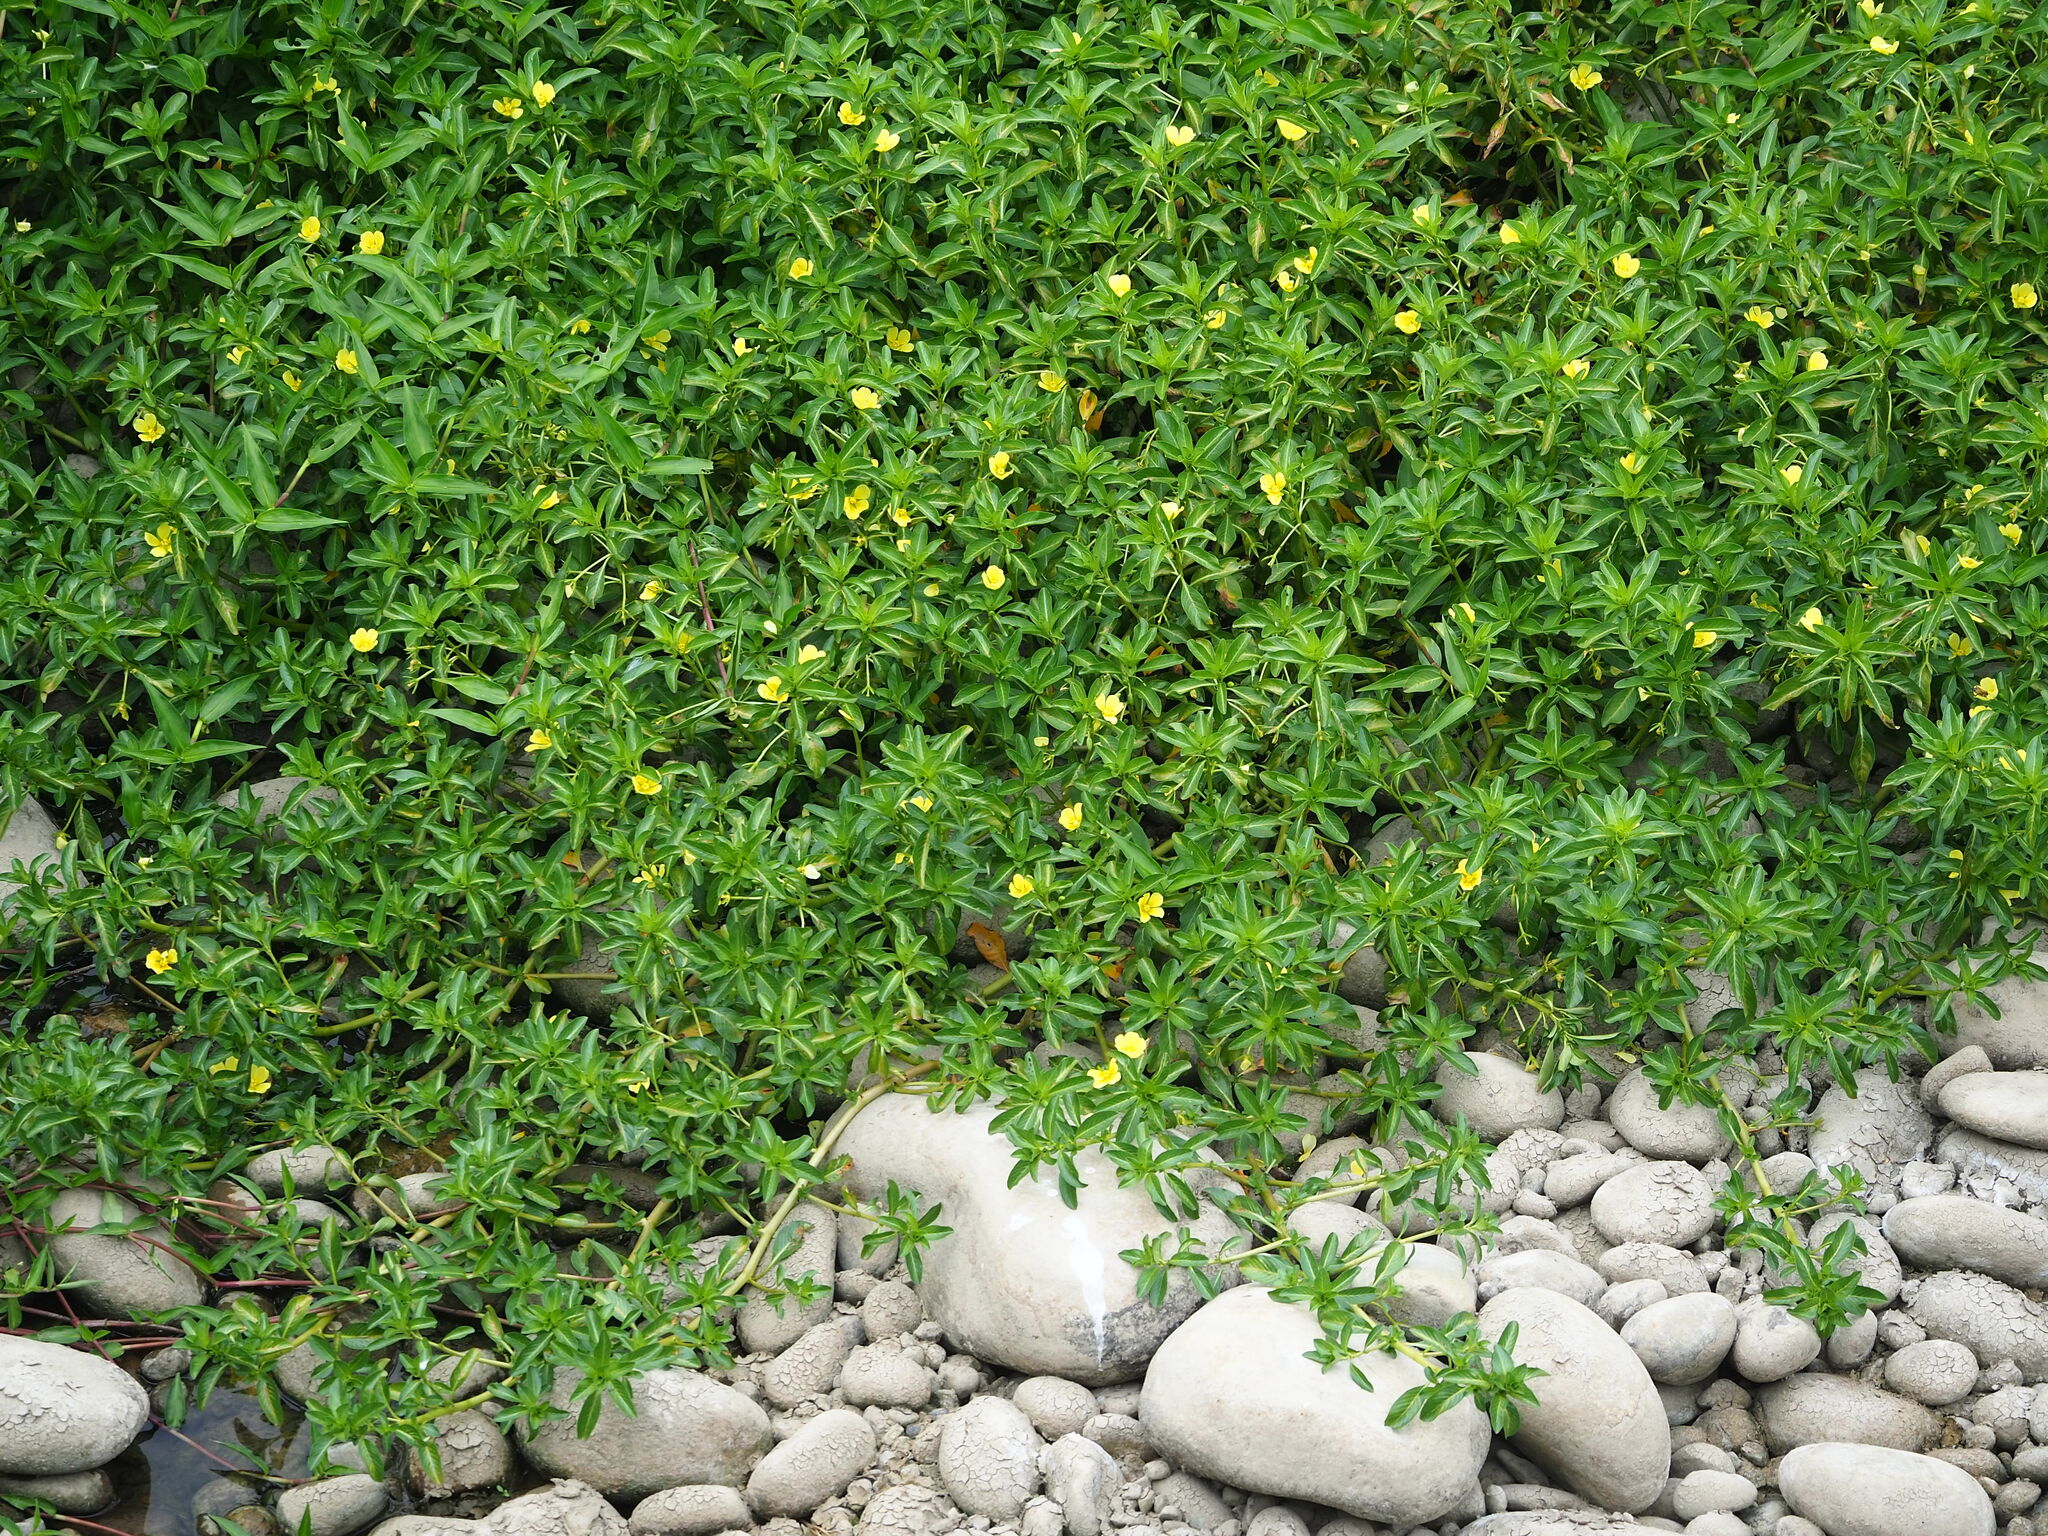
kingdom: Plantae
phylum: Tracheophyta
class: Magnoliopsida
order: Myrtales
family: Onagraceae
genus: Ludwigia
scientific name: Ludwigia taiwanensis
